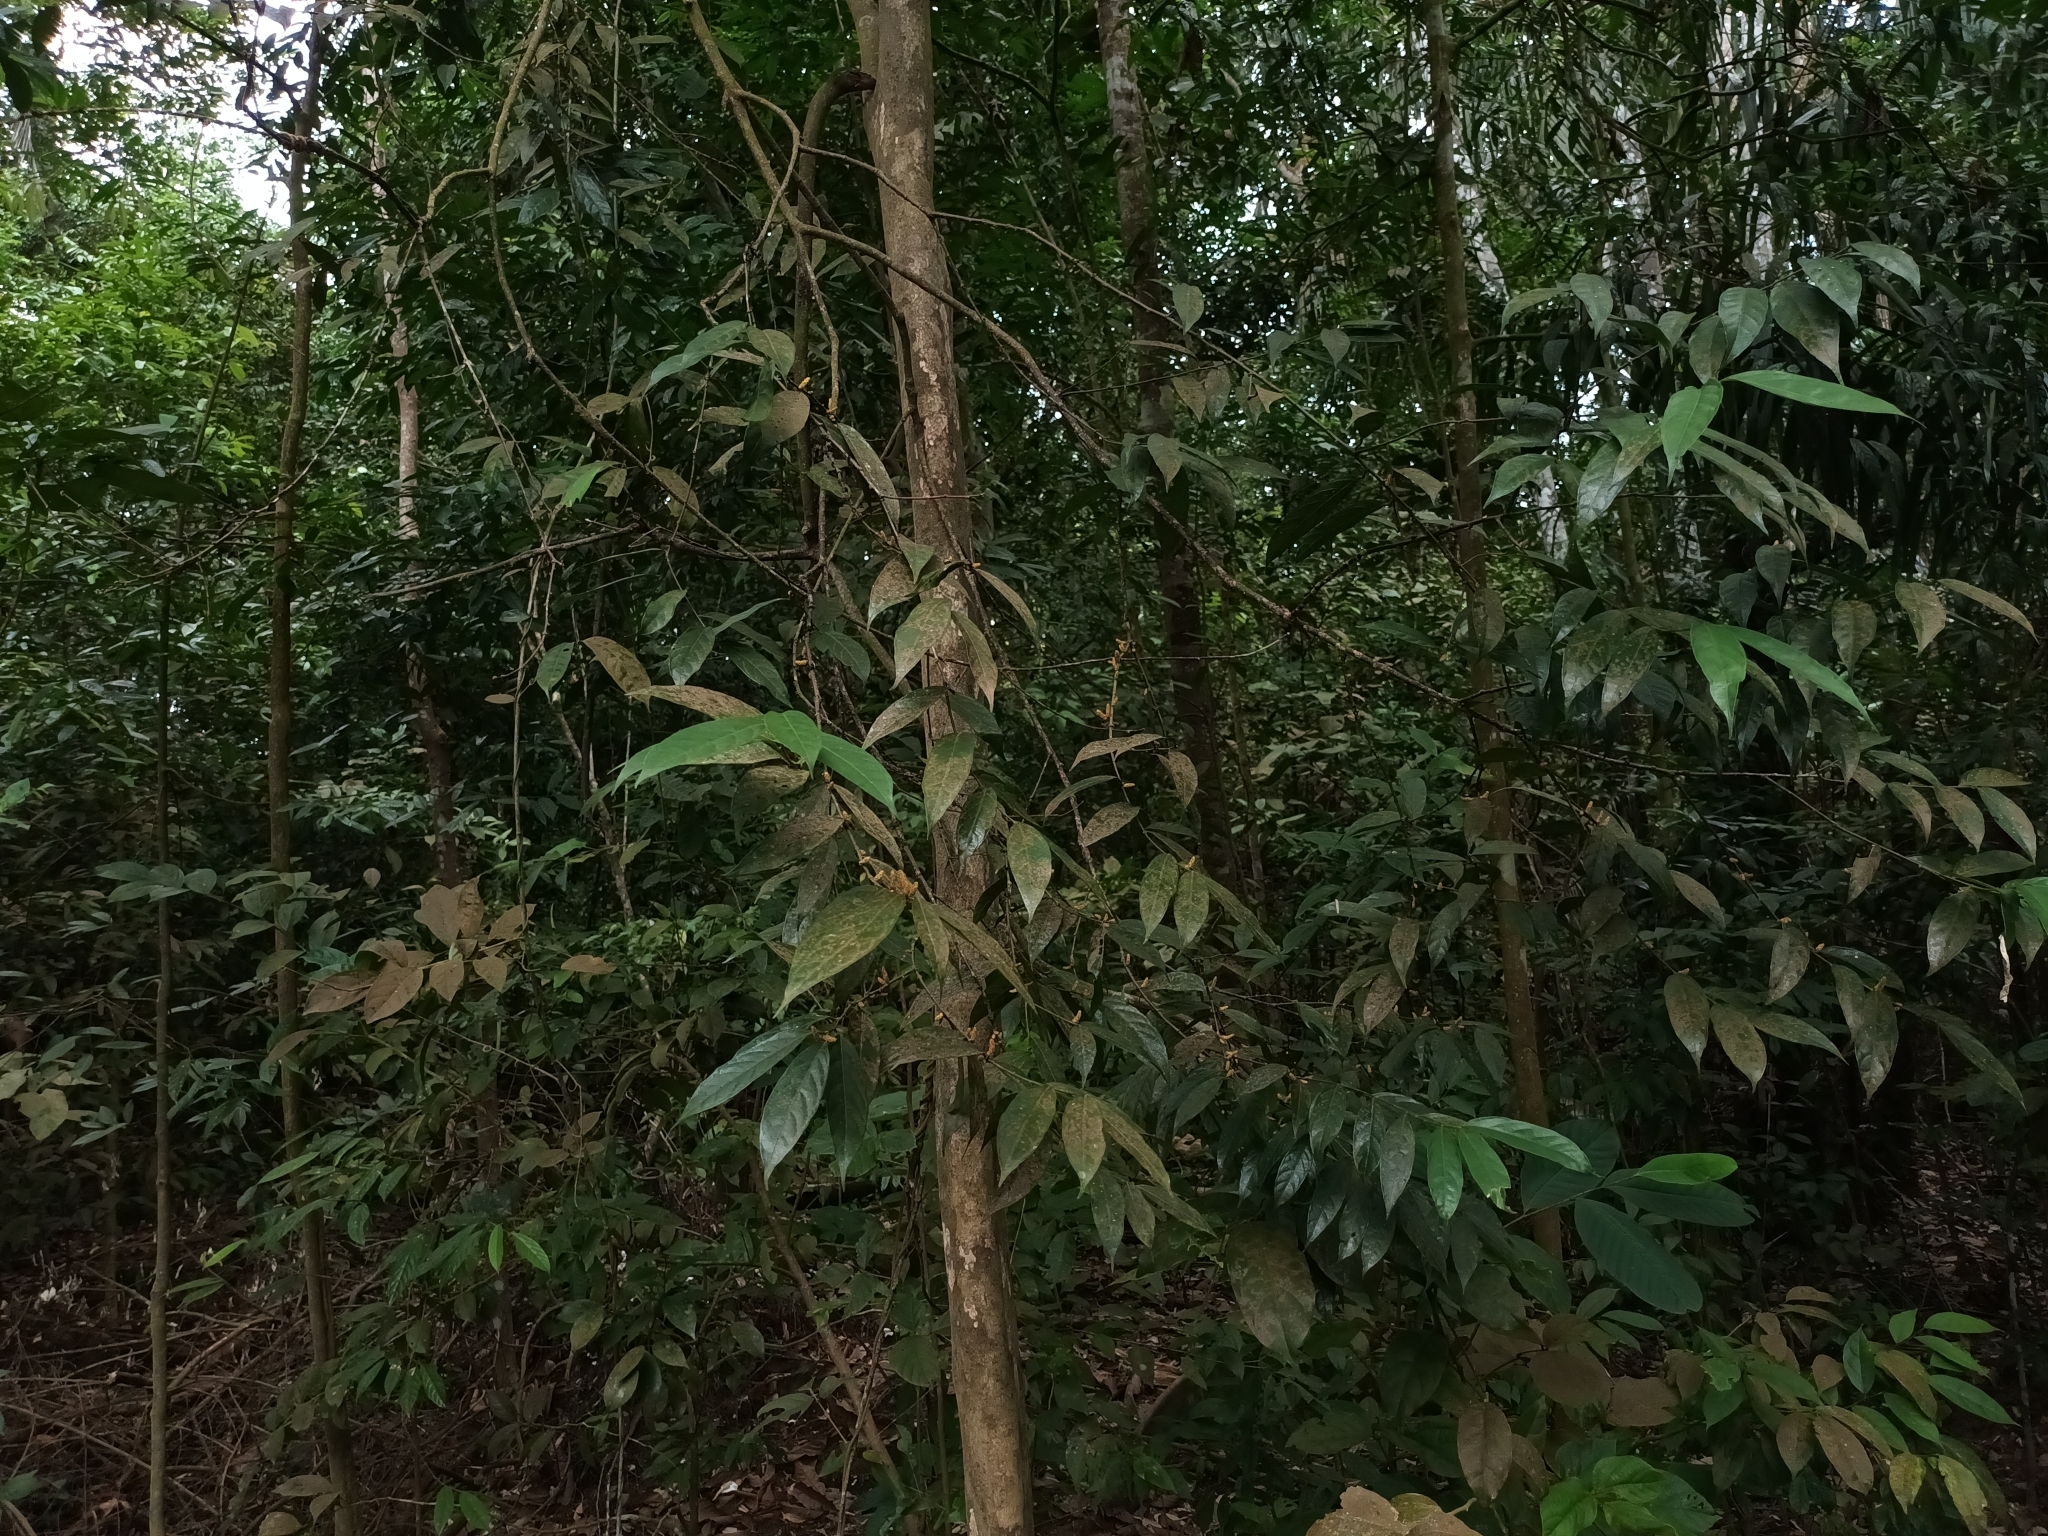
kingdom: Plantae
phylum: Tracheophyta
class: Magnoliopsida
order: Malpighiales
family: Phyllanthaceae
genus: Aporosa
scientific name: Aporosa frutescens
